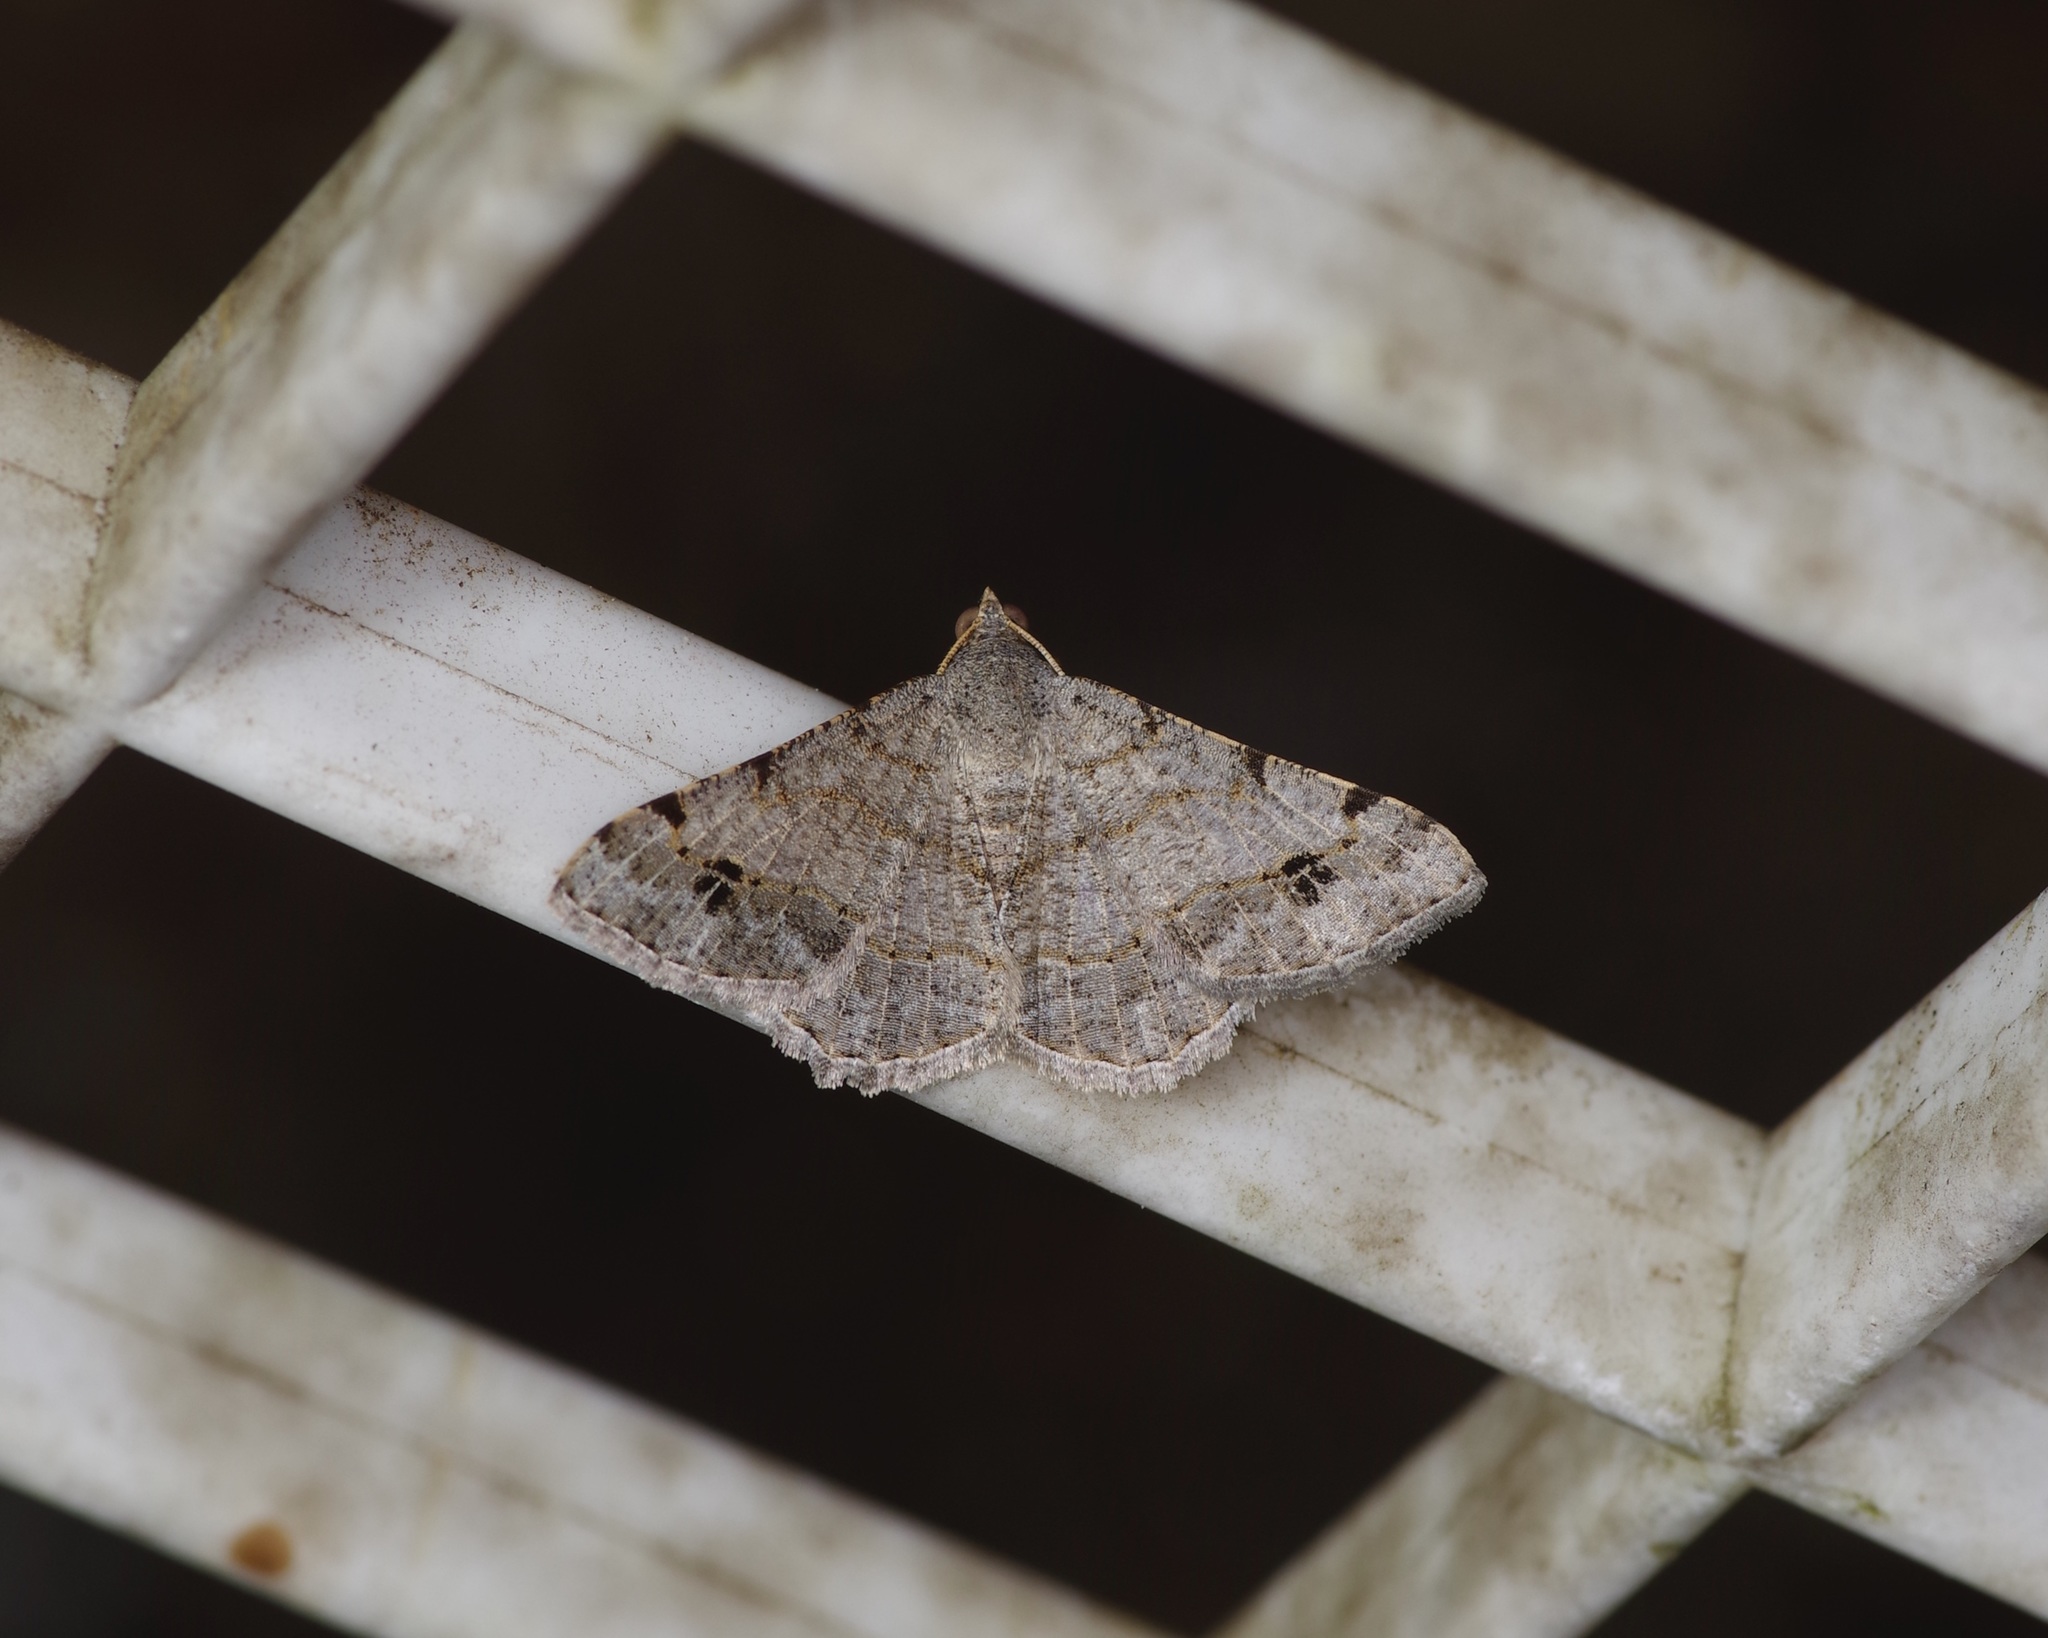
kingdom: Animalia
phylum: Arthropoda
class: Insecta
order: Lepidoptera
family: Geometridae
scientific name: Geometridae
